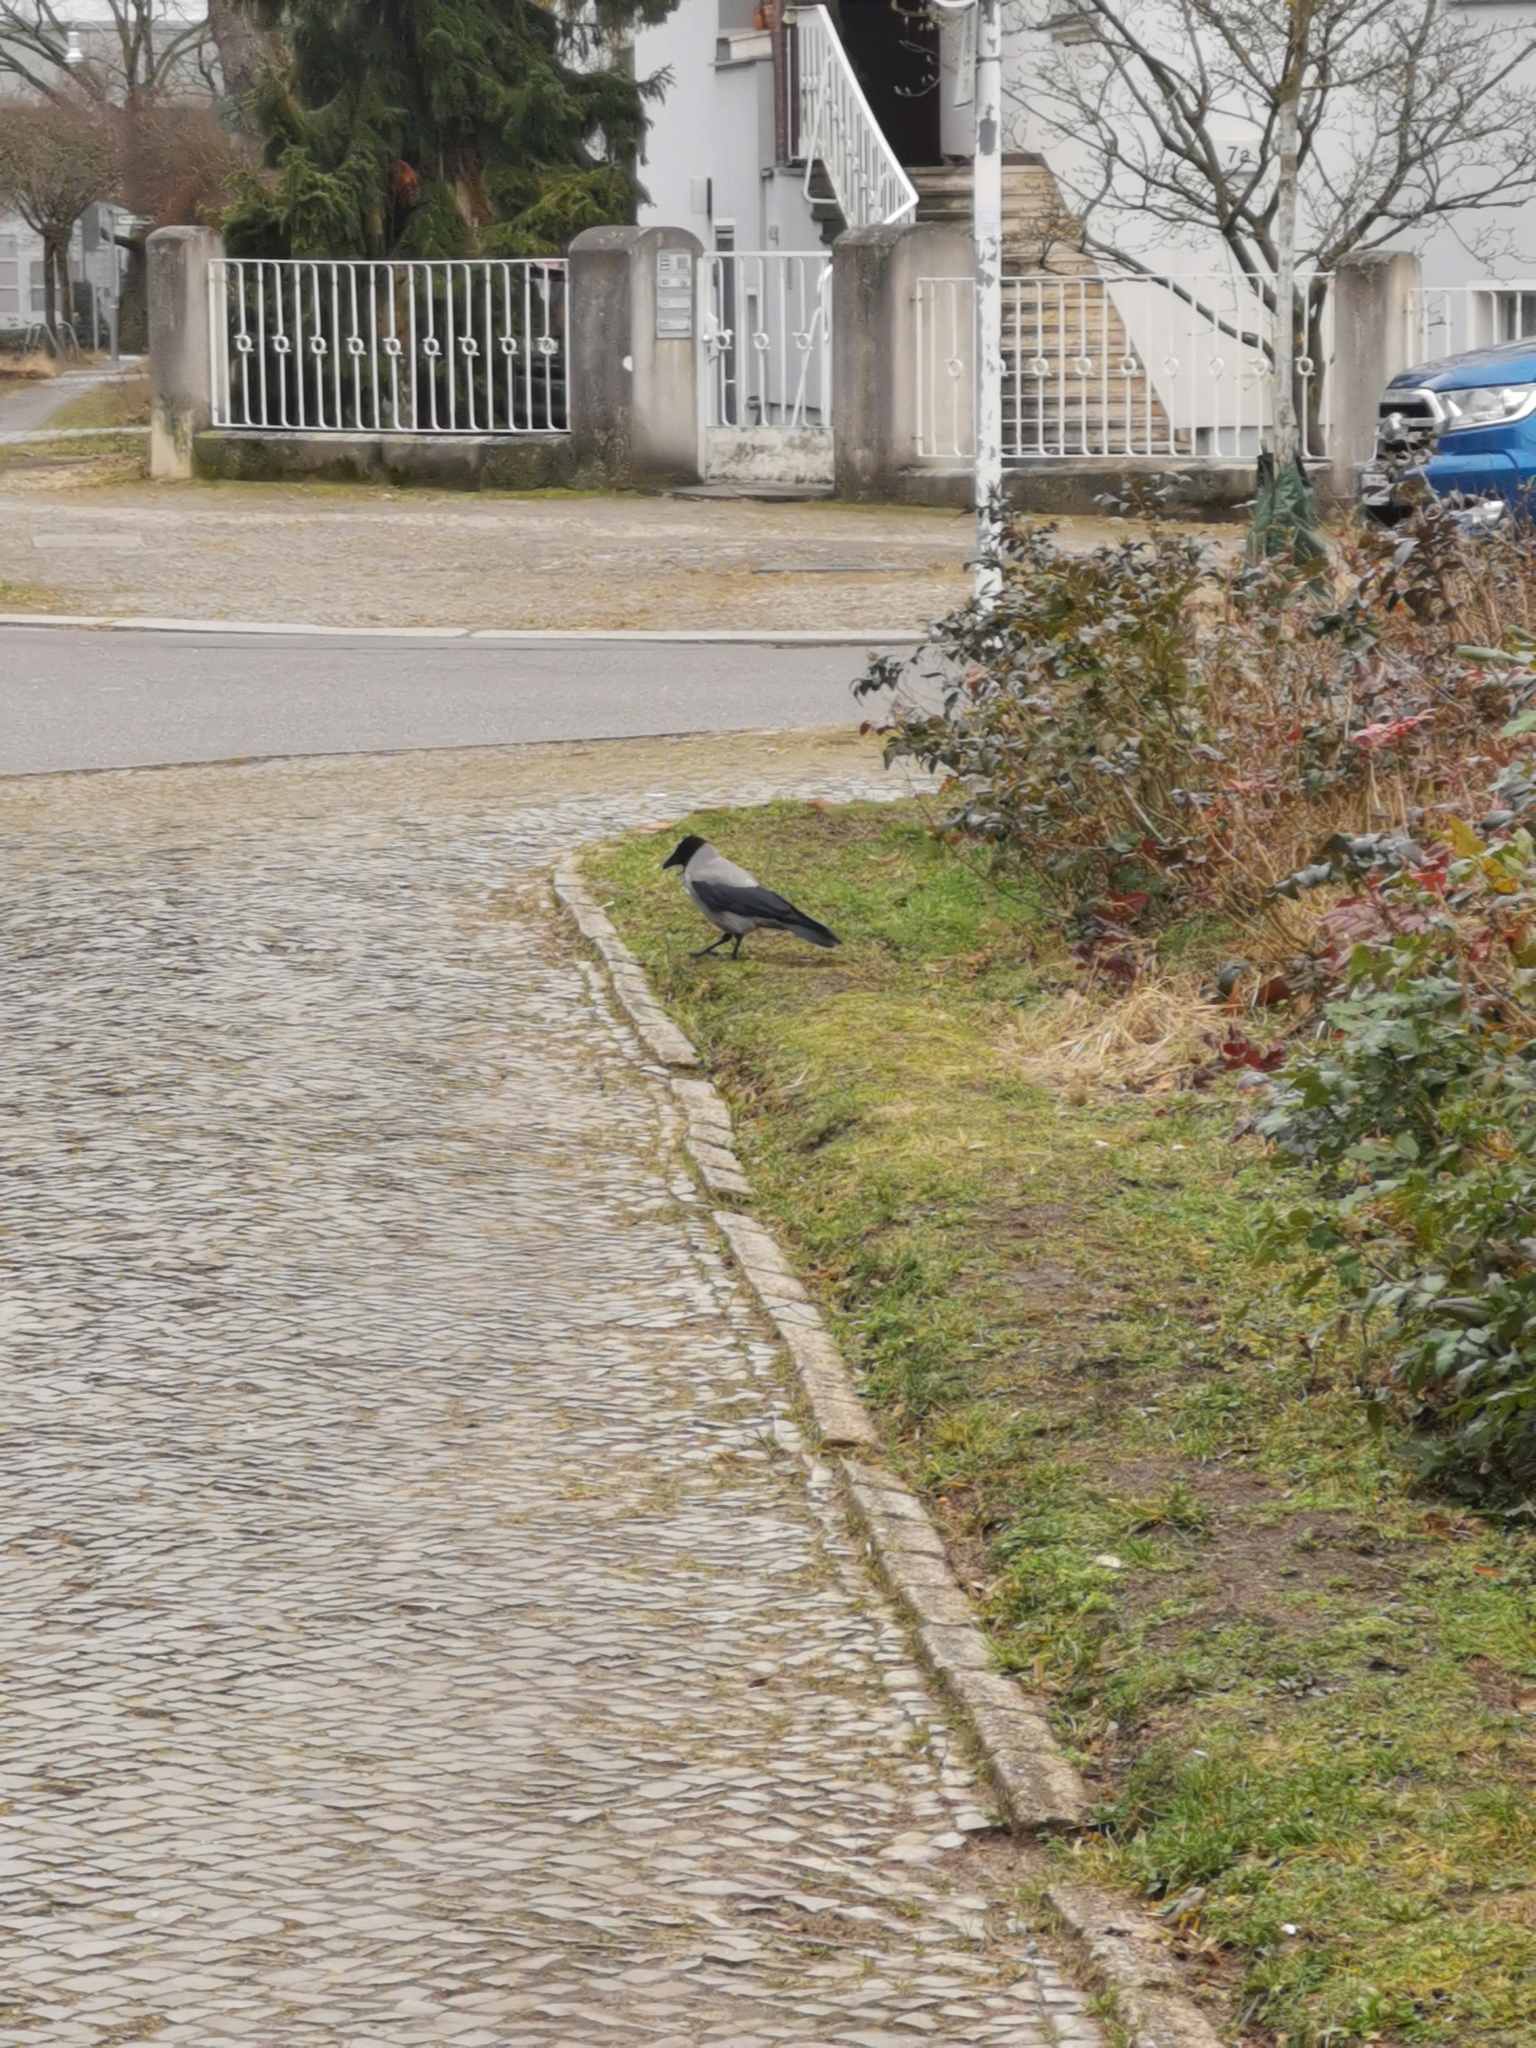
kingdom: Animalia
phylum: Chordata
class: Aves
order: Passeriformes
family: Corvidae
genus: Corvus
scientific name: Corvus cornix
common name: Hooded crow
